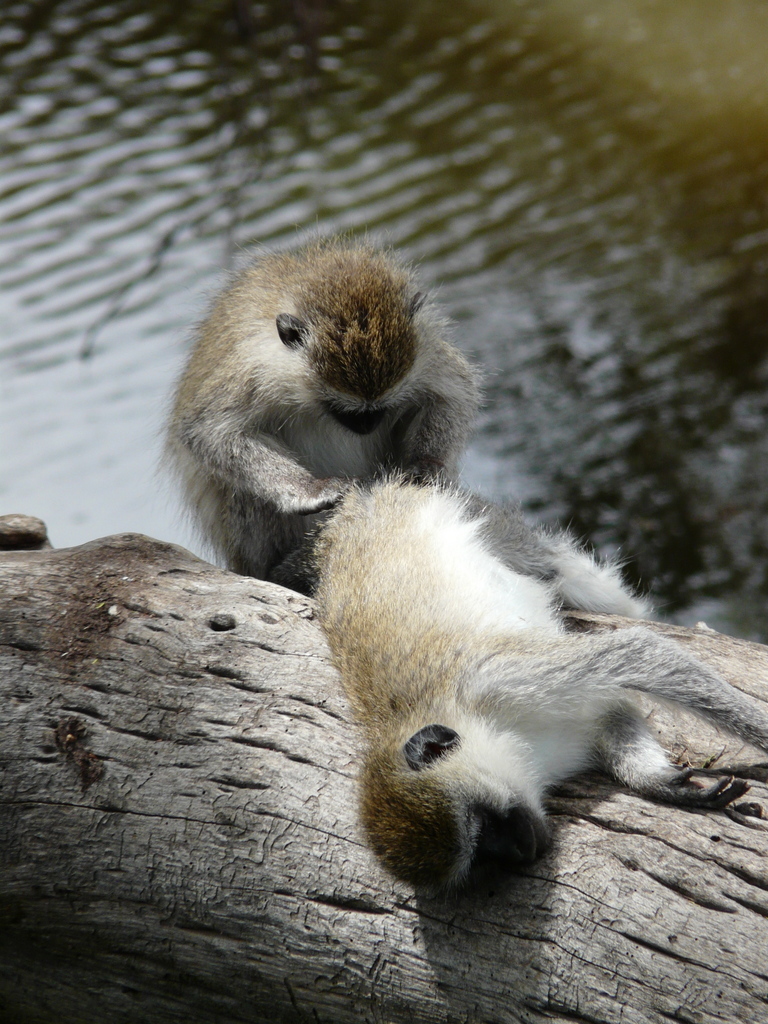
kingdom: Animalia
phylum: Chordata
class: Mammalia
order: Primates
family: Cercopithecidae
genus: Chlorocebus
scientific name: Chlorocebus pygerythrus
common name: Vervet monkey
